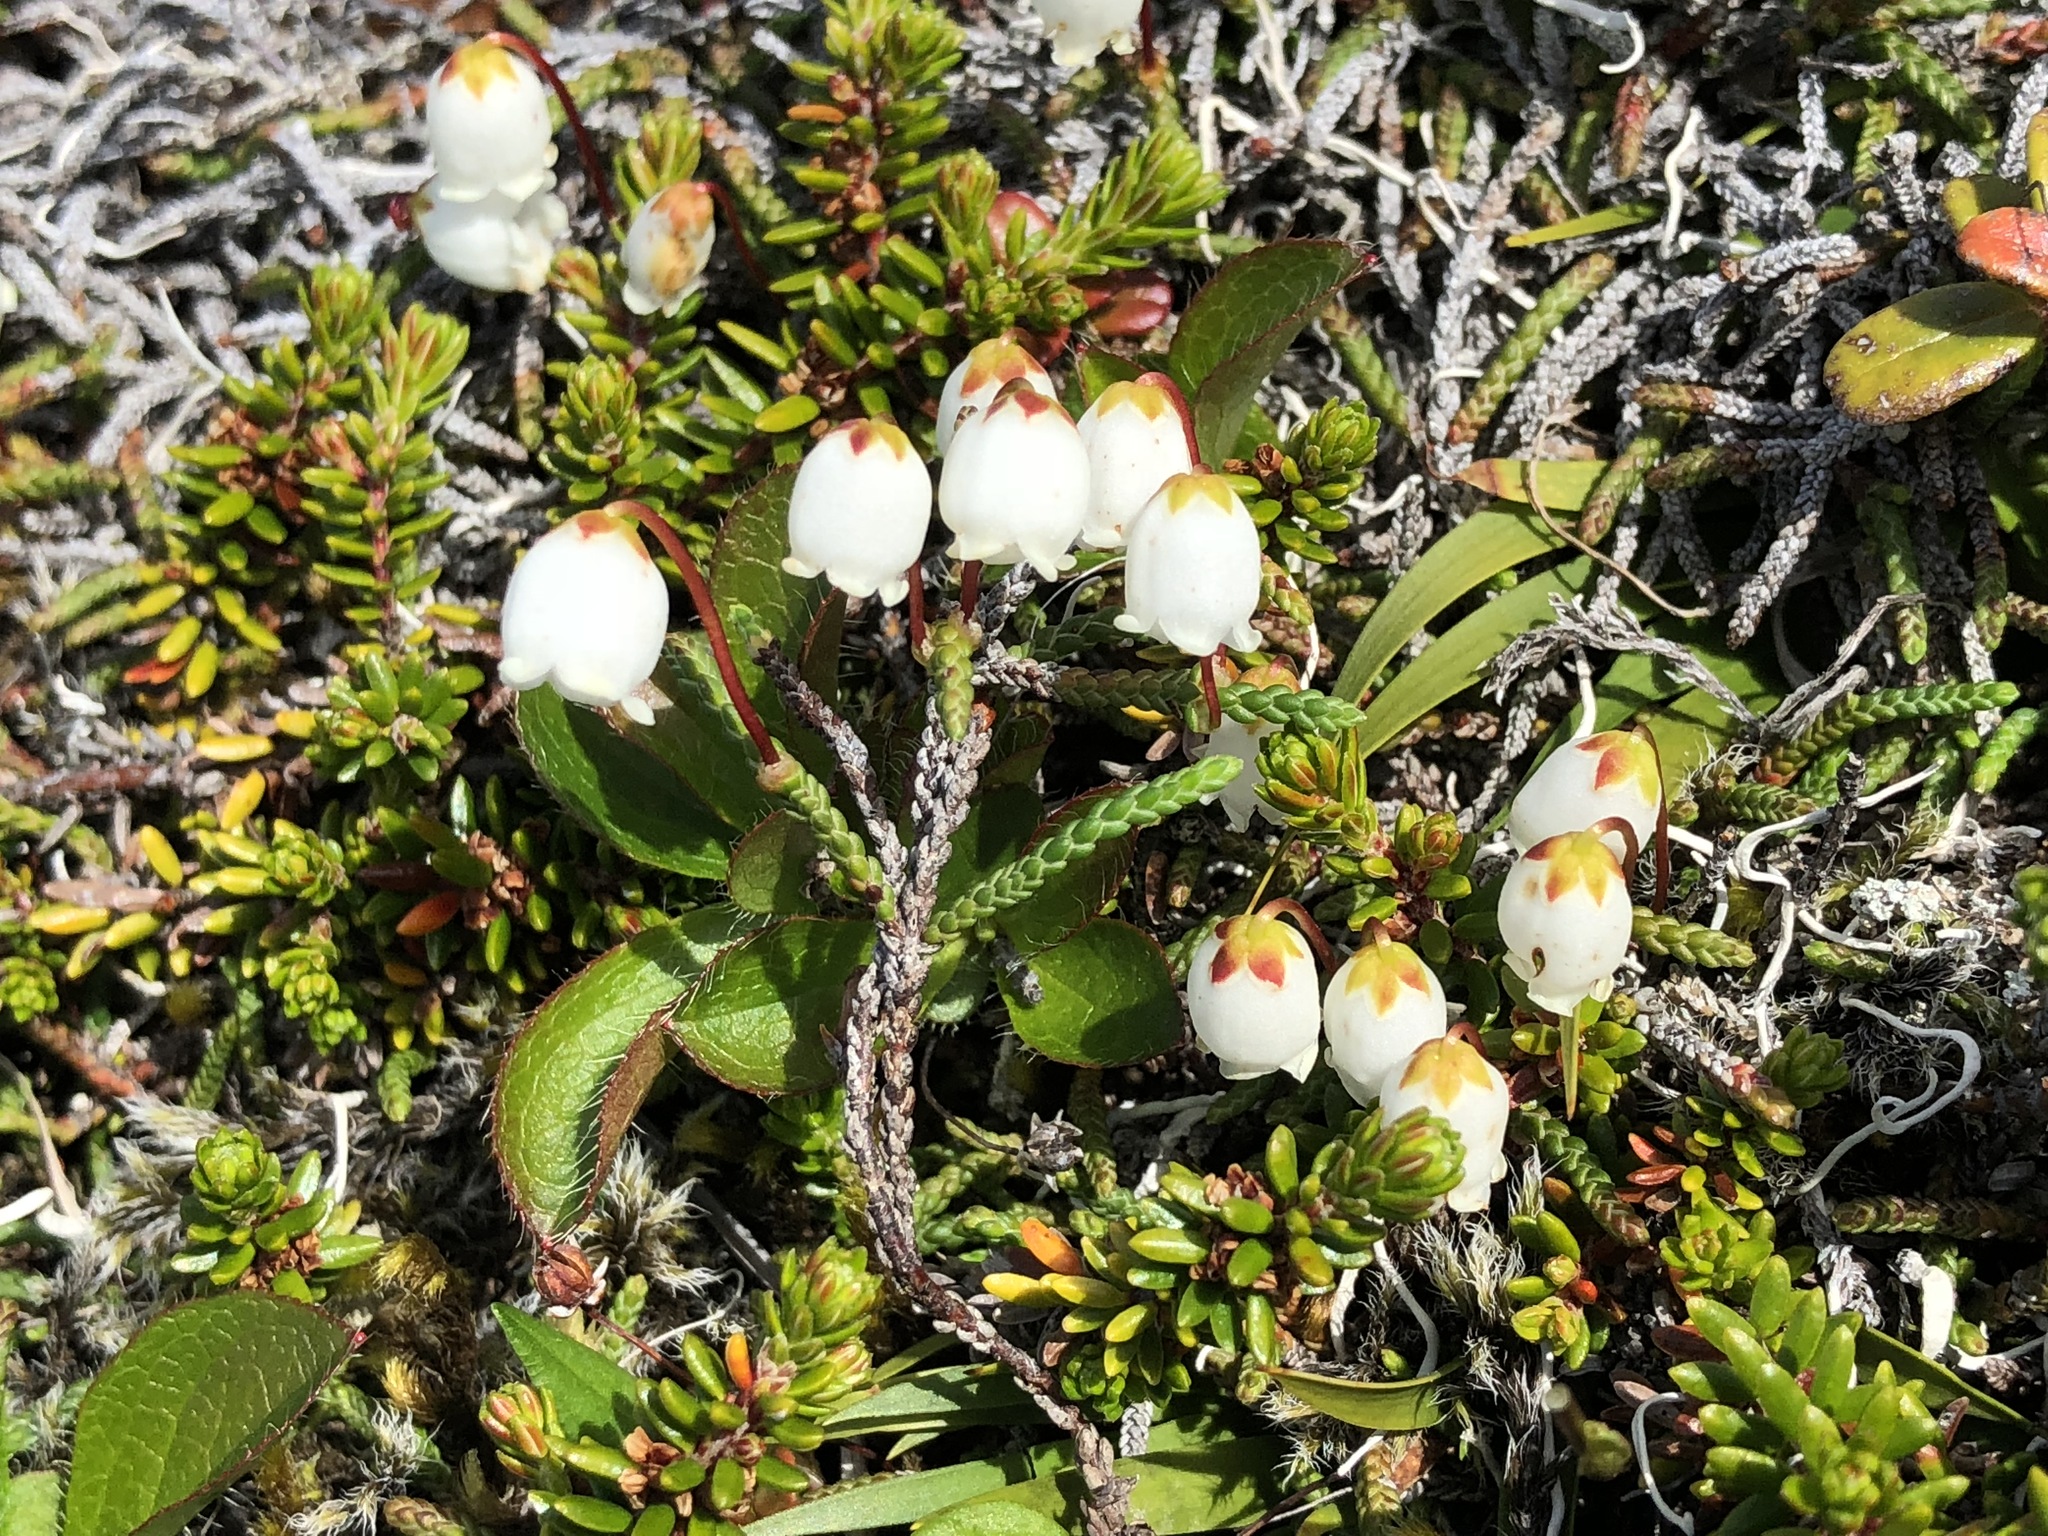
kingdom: Plantae
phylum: Tracheophyta
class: Magnoliopsida
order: Ericales
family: Ericaceae
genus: Cassiope
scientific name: Cassiope lycopodioides
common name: Clubmoss mountain heather
